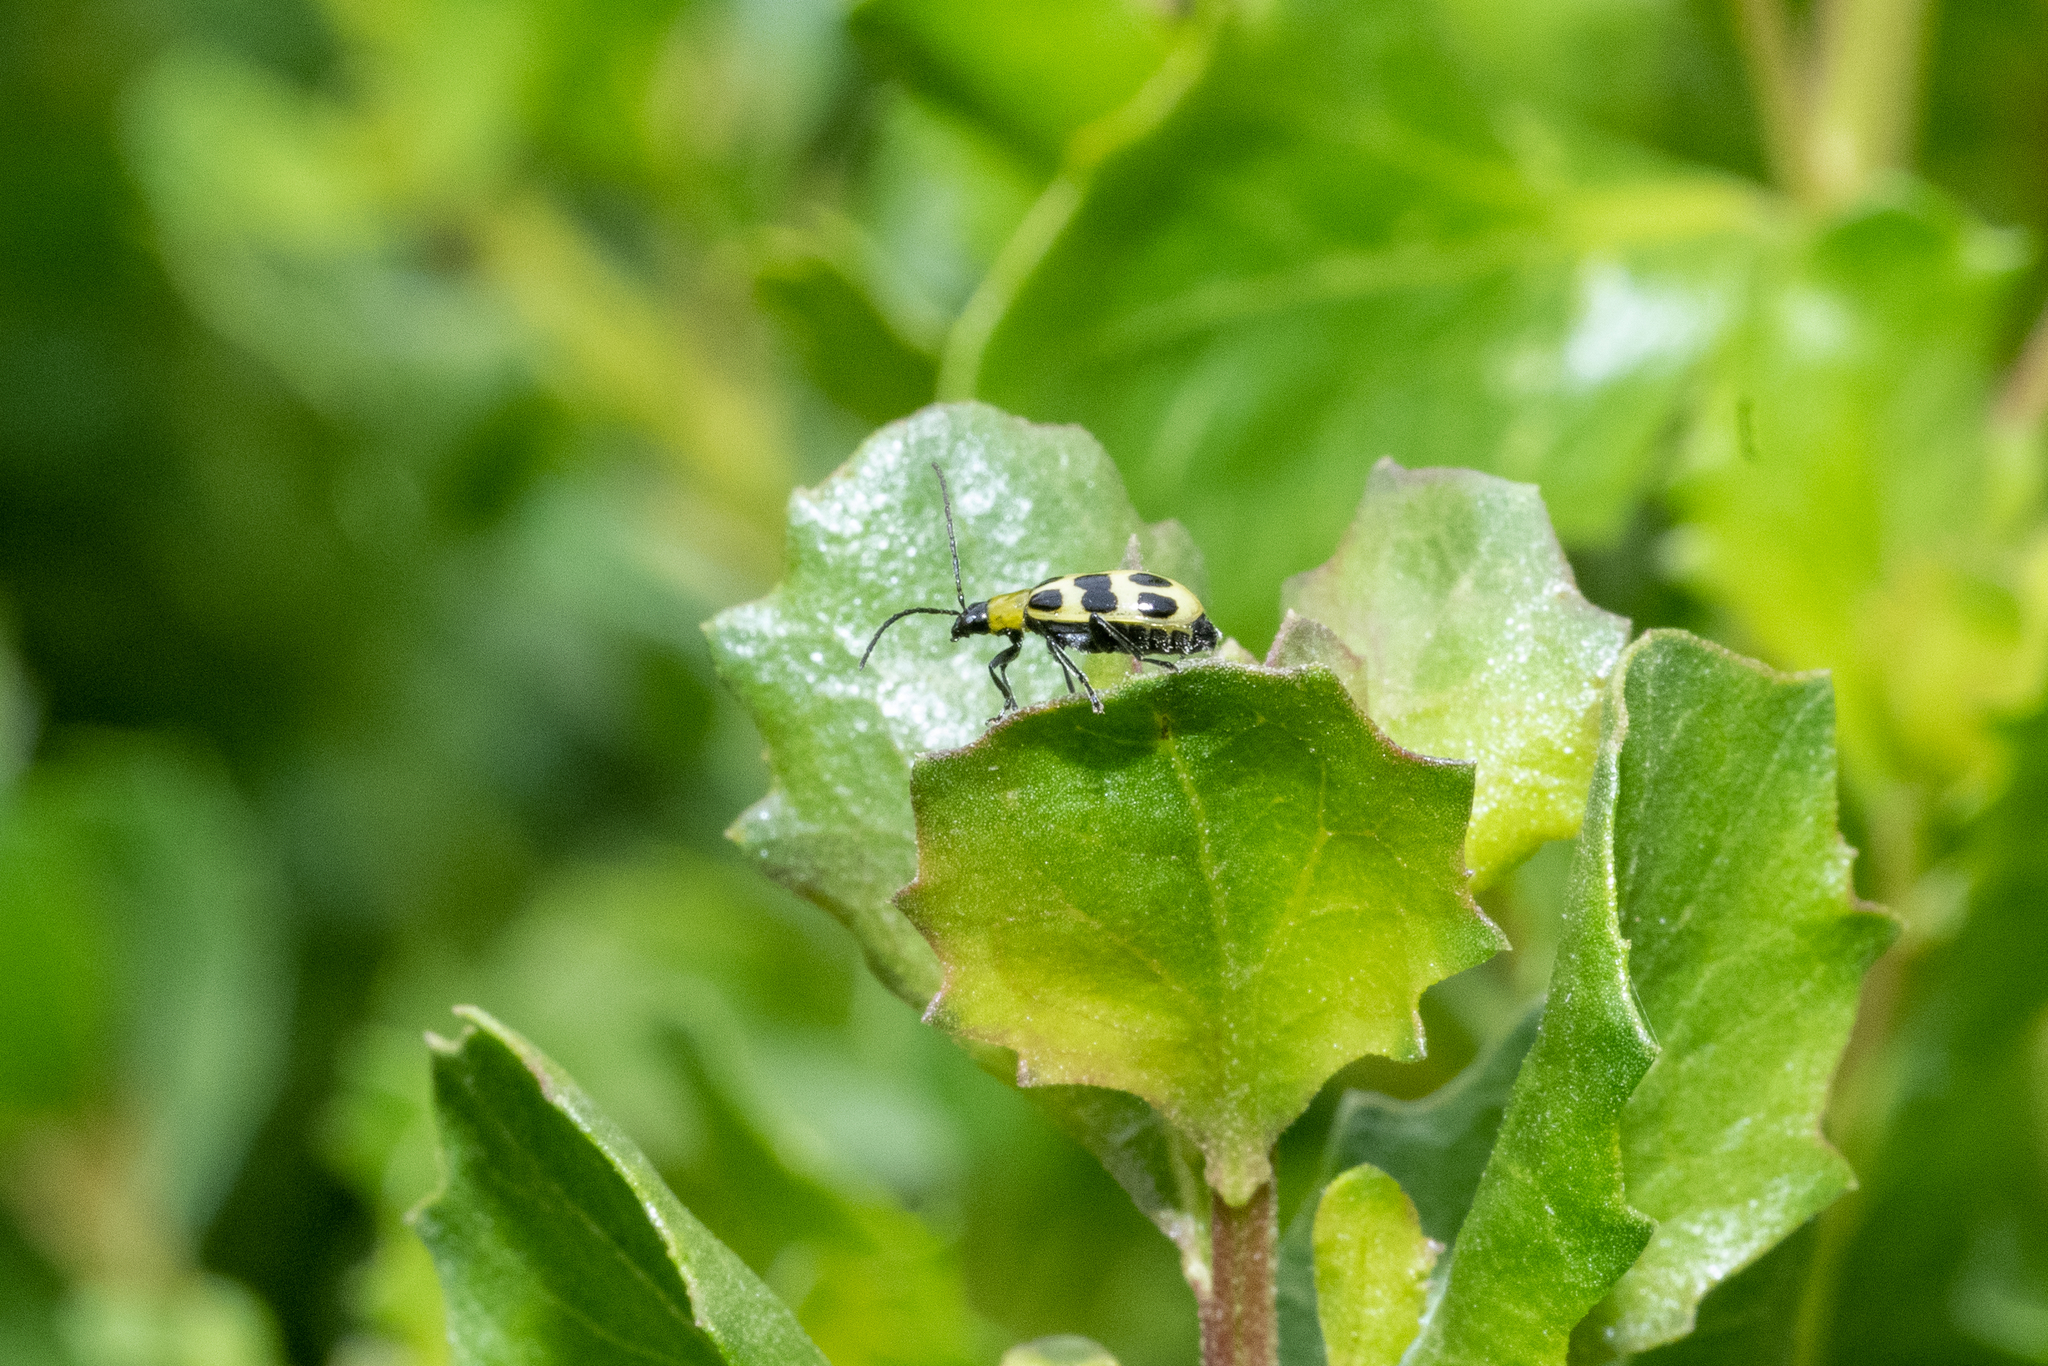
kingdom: Animalia
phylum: Arthropoda
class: Insecta
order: Coleoptera
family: Chrysomelidae
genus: Diabrotica
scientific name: Diabrotica undecimpunctata
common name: Spotted cucumber beetle
